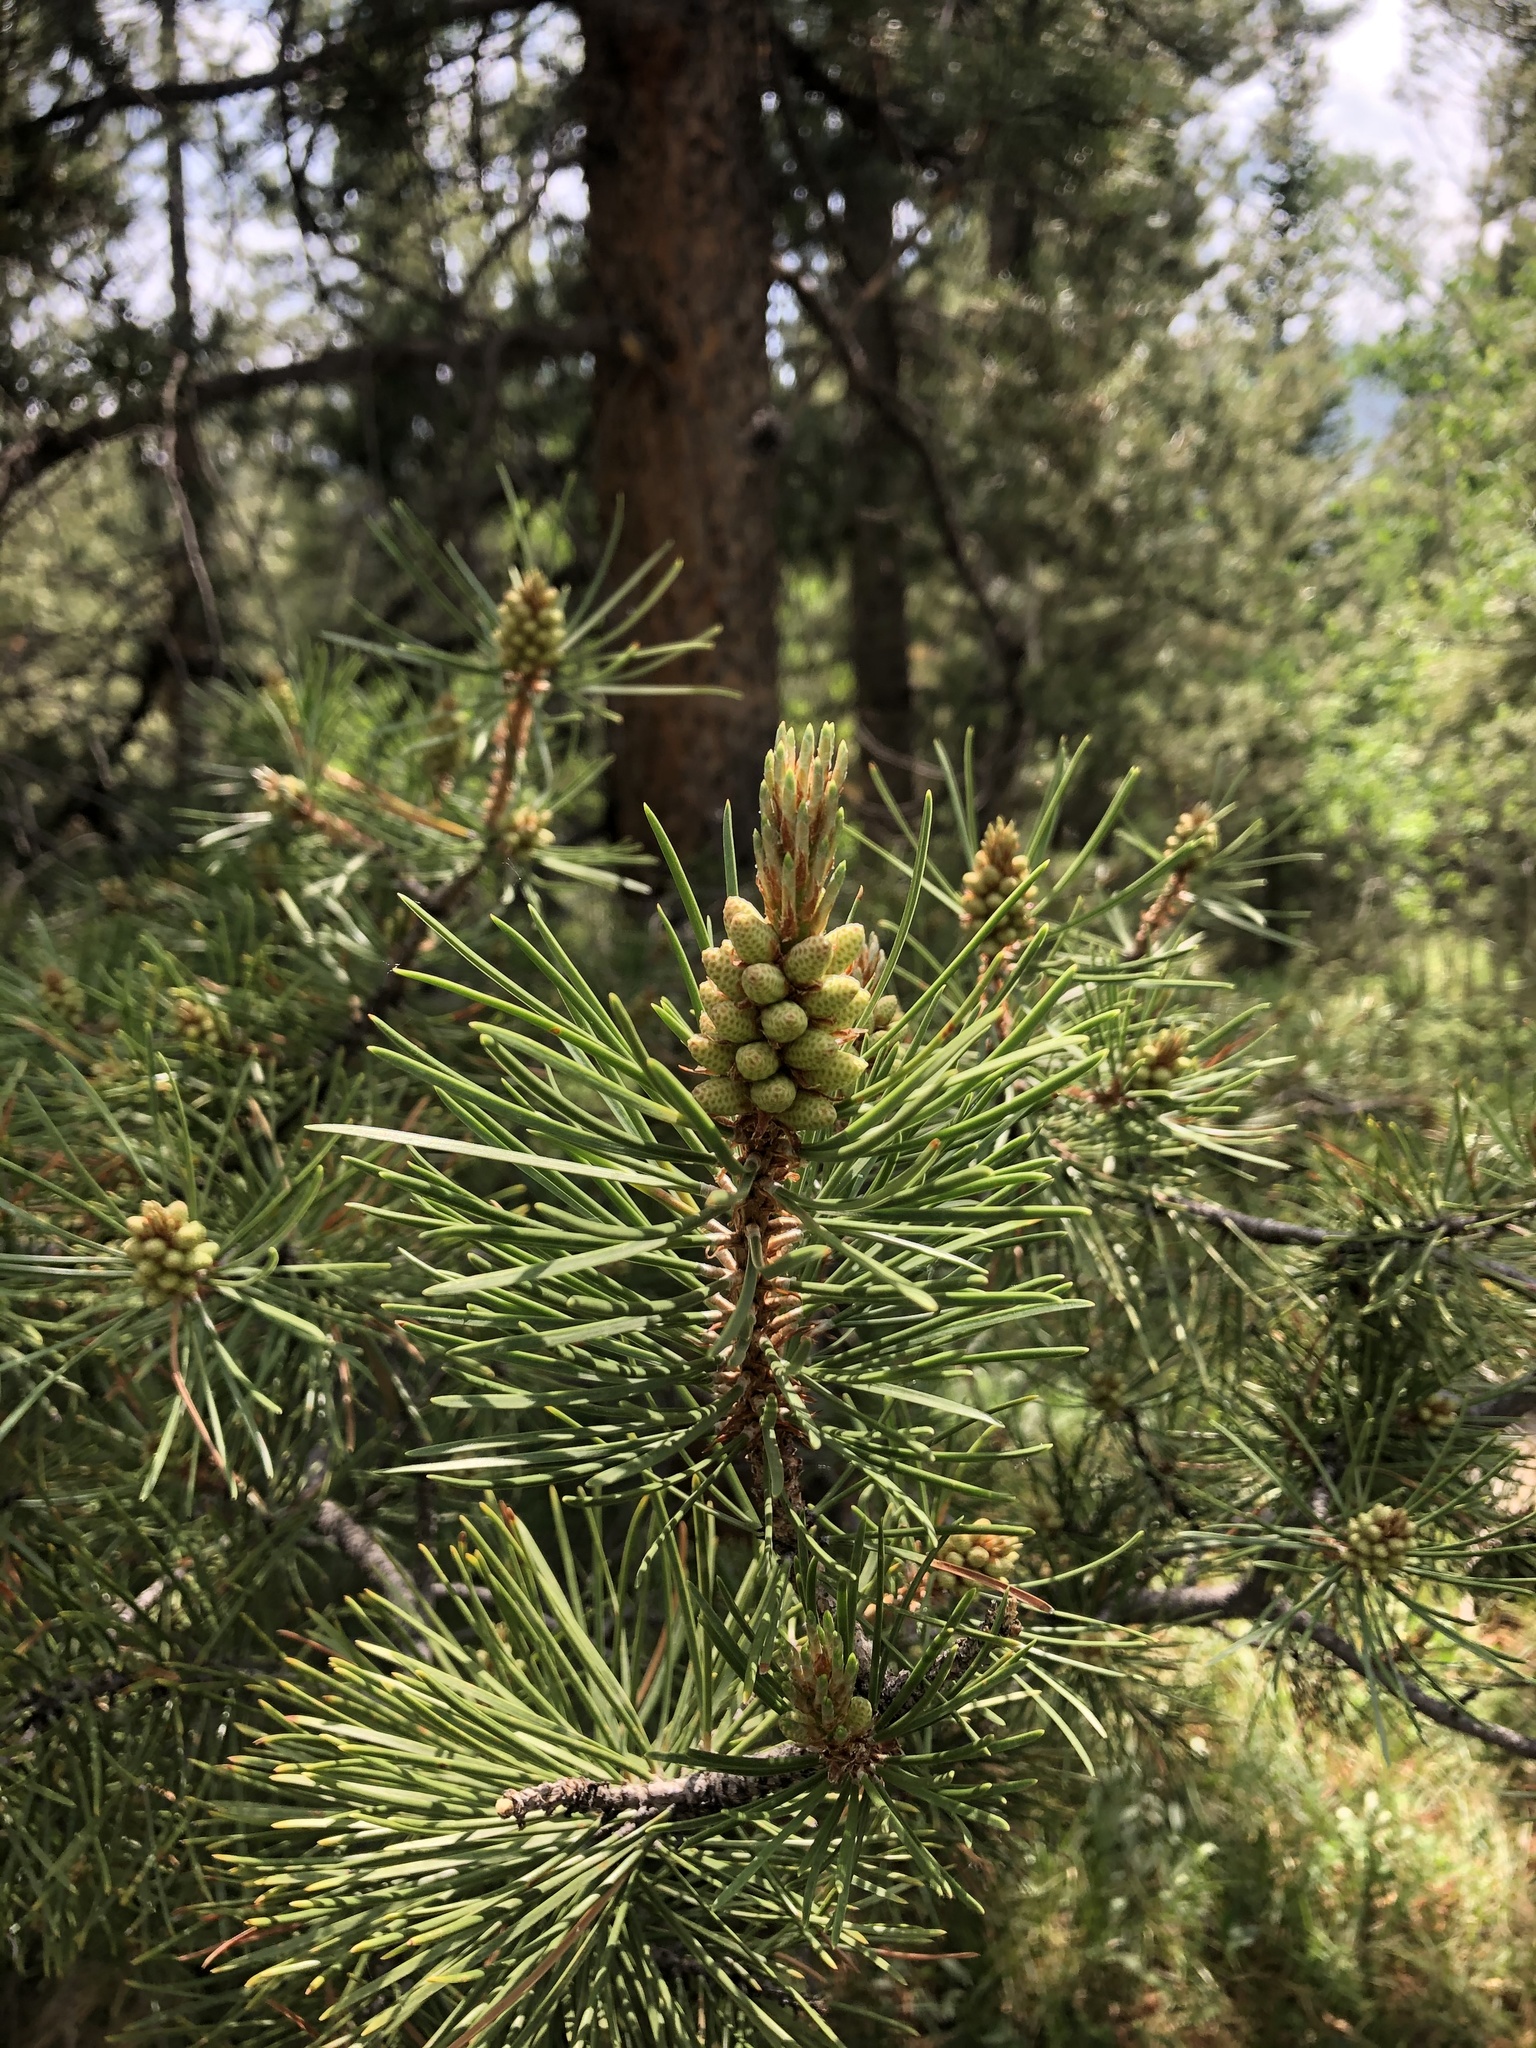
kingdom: Plantae
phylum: Tracheophyta
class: Pinopsida
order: Pinales
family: Pinaceae
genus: Pinus
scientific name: Pinus contorta
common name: Lodgepole pine
